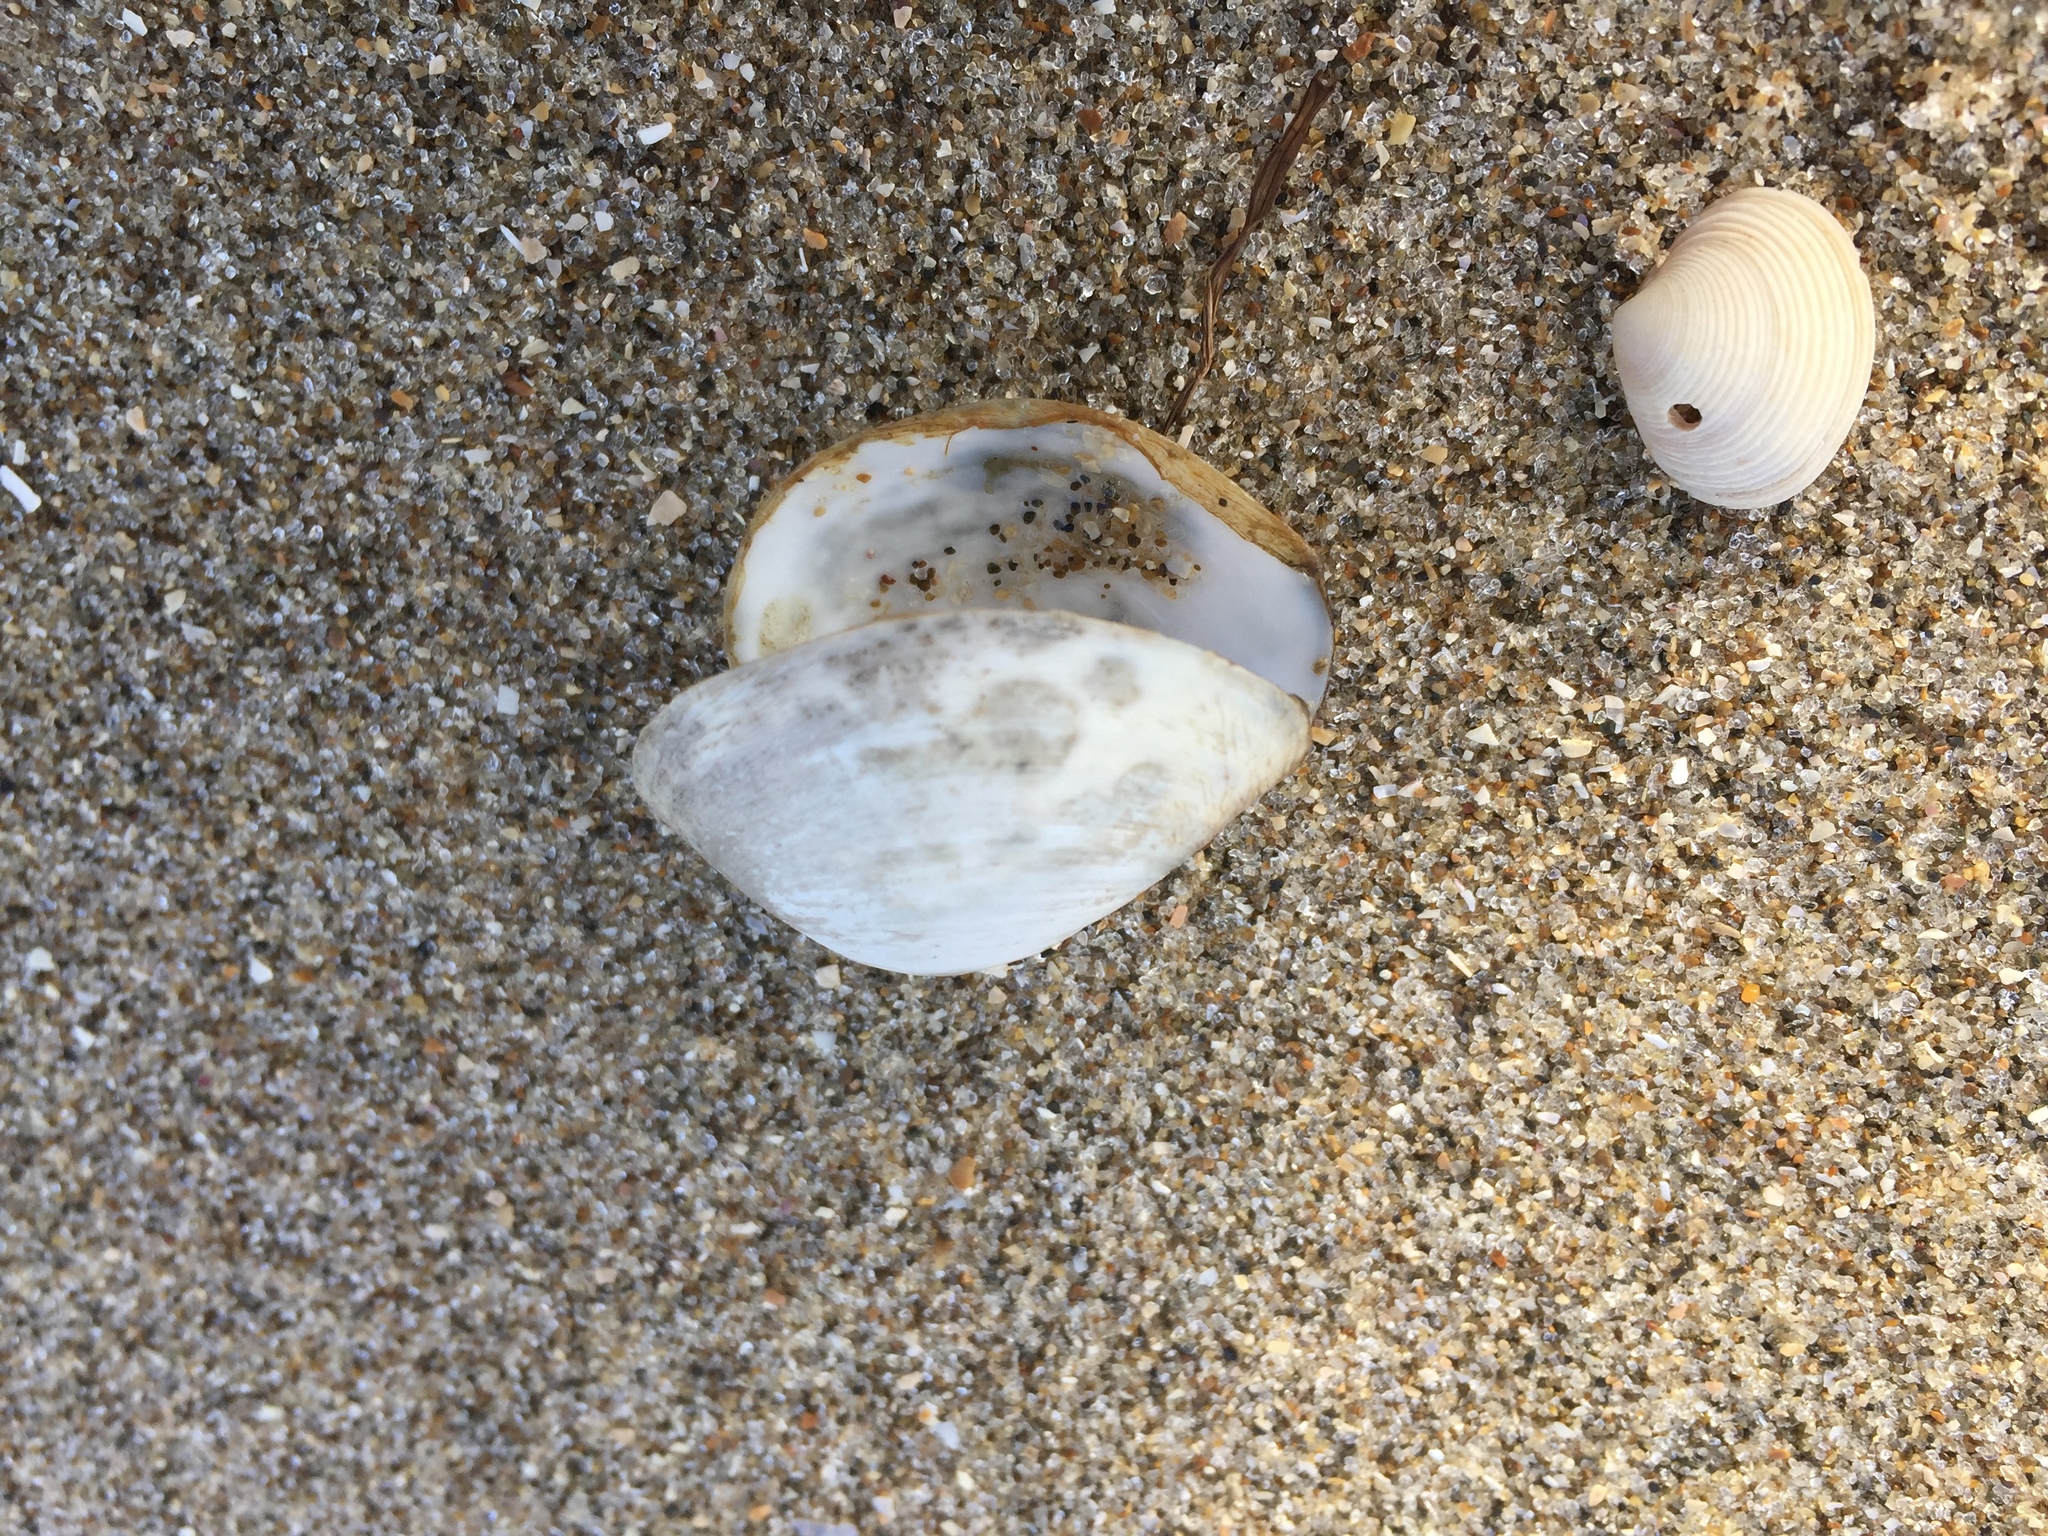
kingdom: Animalia
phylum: Mollusca
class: Bivalvia
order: Venerida
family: Mactridae
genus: Cyclomactra
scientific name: Cyclomactra ovata
